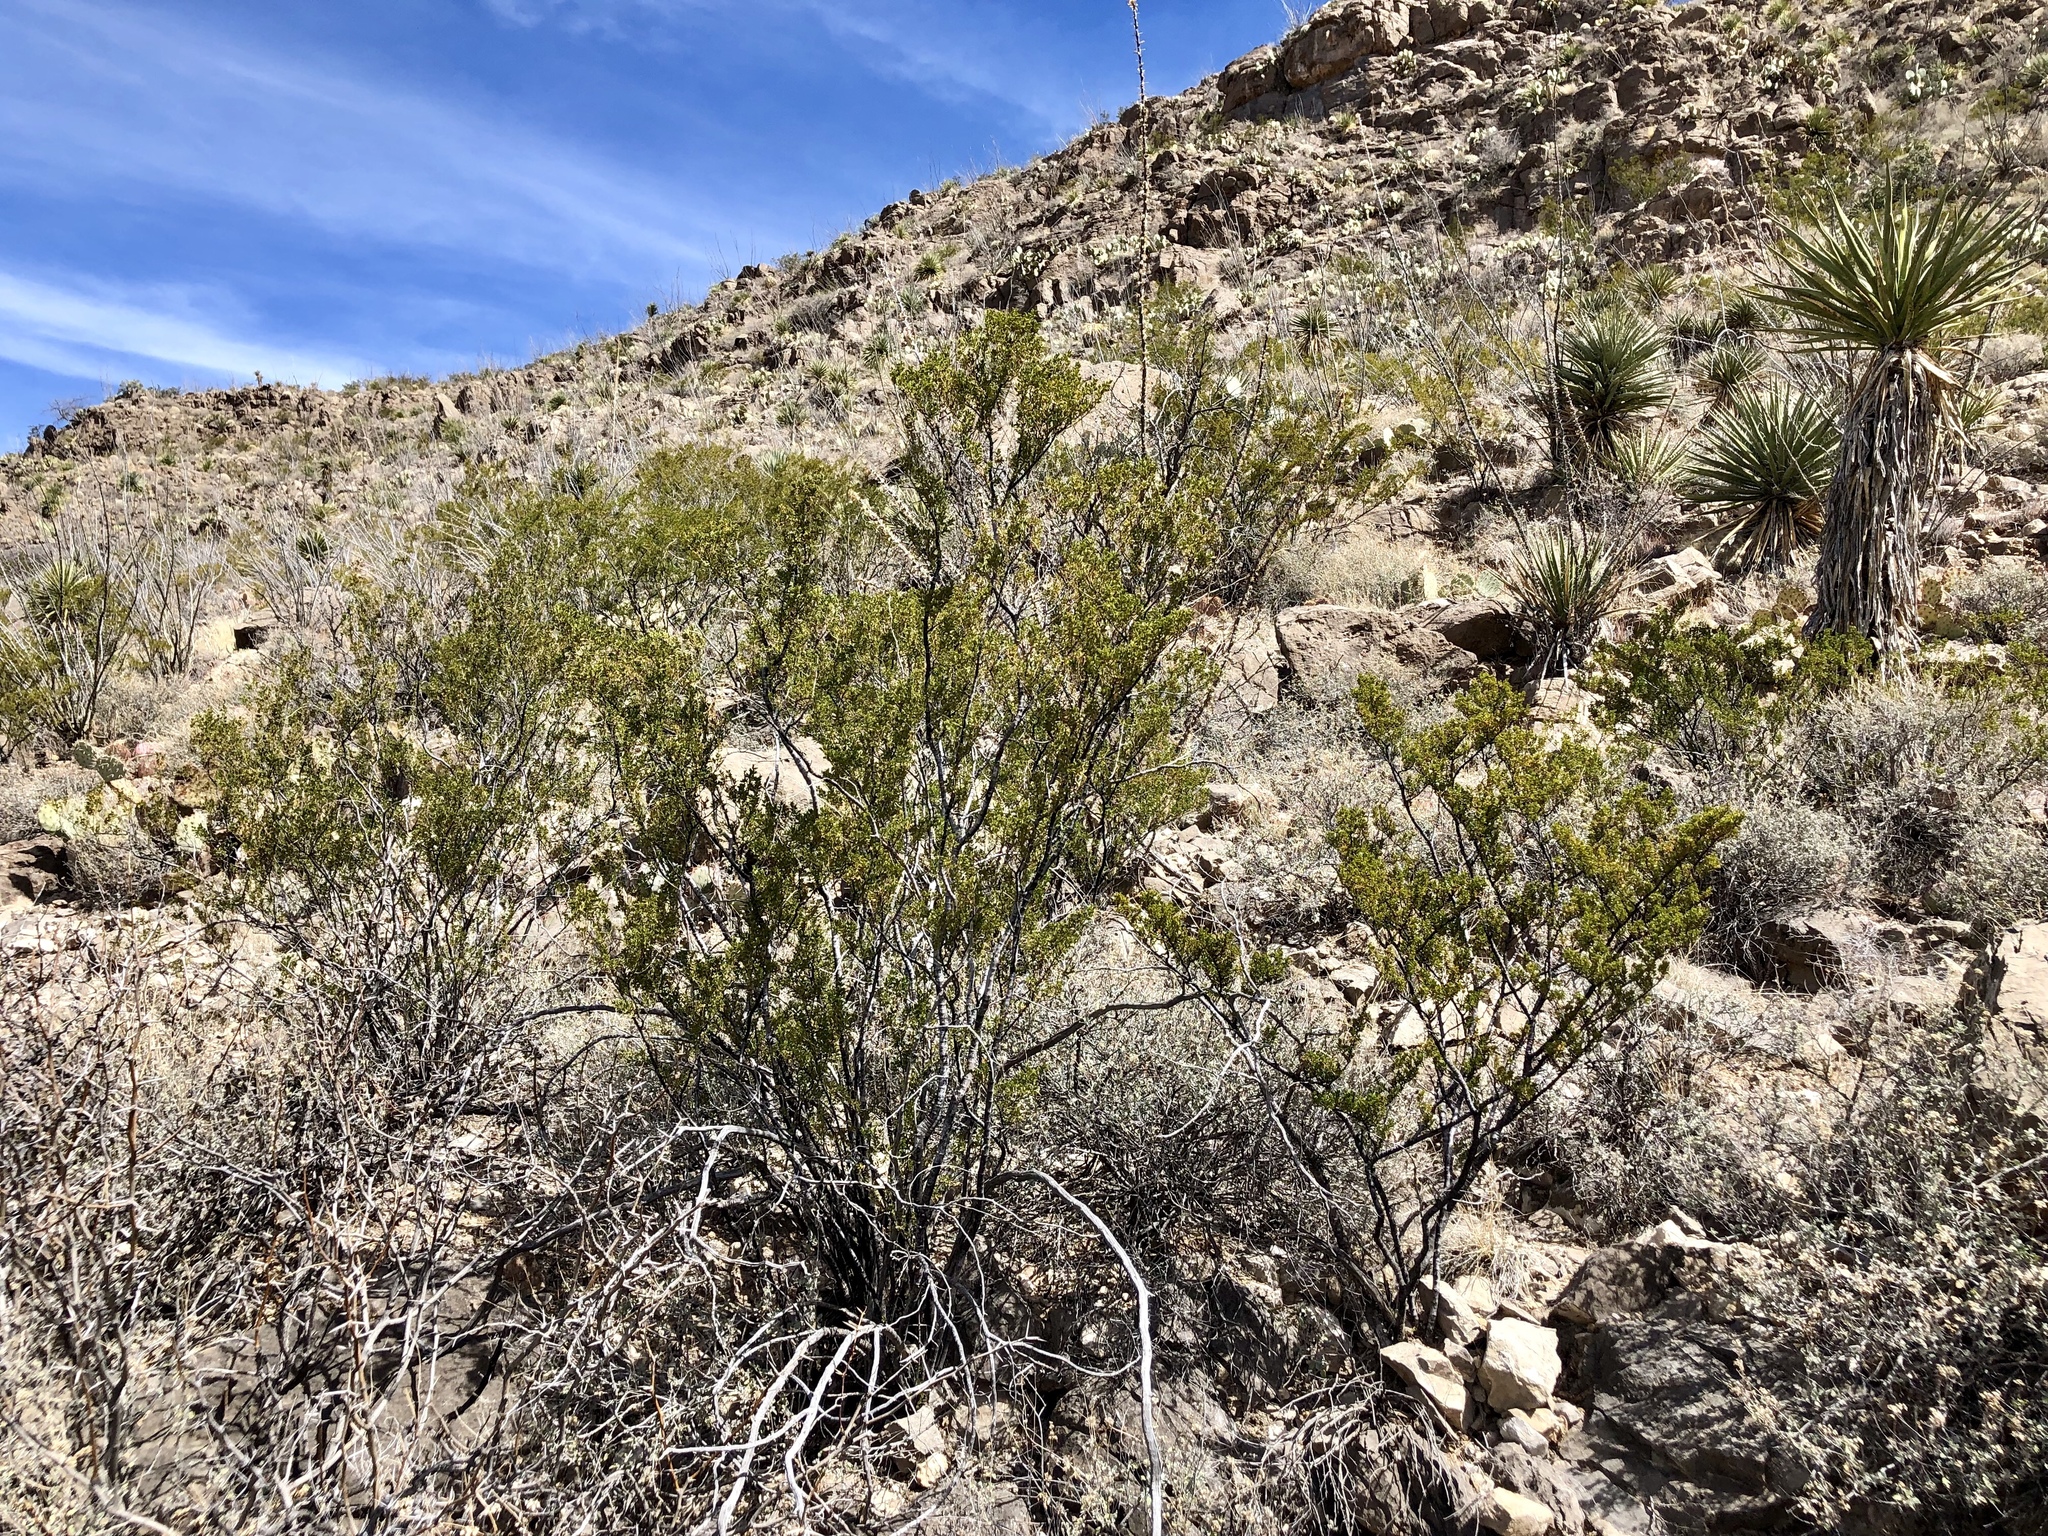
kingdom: Plantae
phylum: Tracheophyta
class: Magnoliopsida
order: Zygophyllales
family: Zygophyllaceae
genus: Larrea
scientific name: Larrea tridentata
